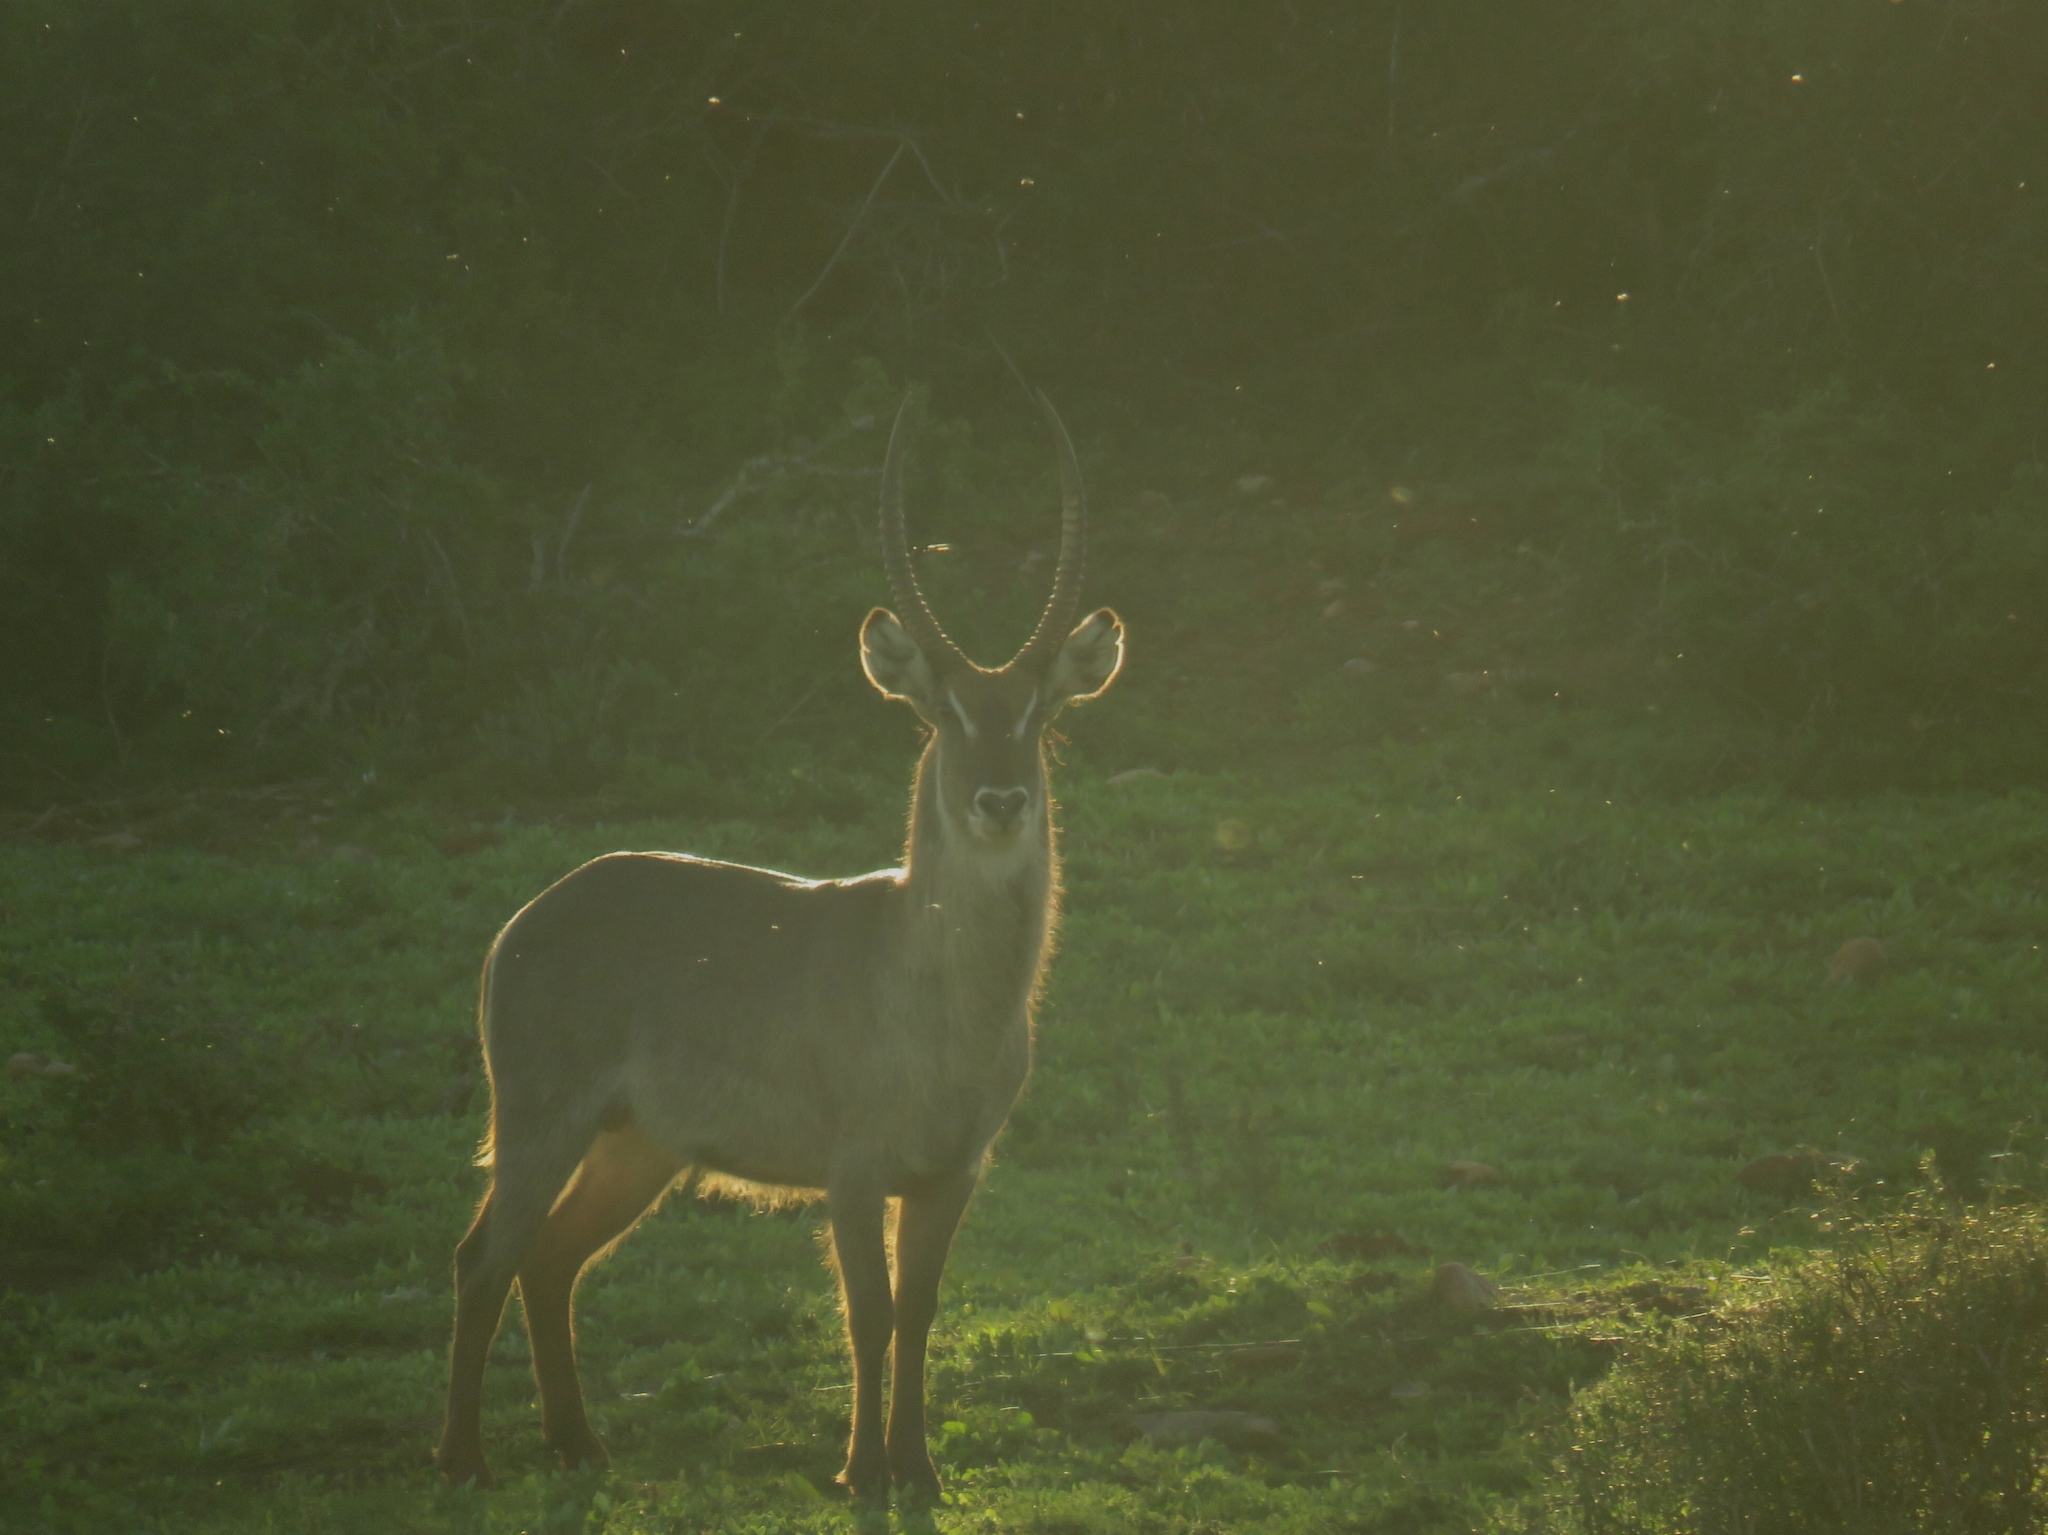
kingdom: Animalia
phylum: Chordata
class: Mammalia
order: Artiodactyla
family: Bovidae
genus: Kobus
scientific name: Kobus ellipsiprymnus
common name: Waterbuck
